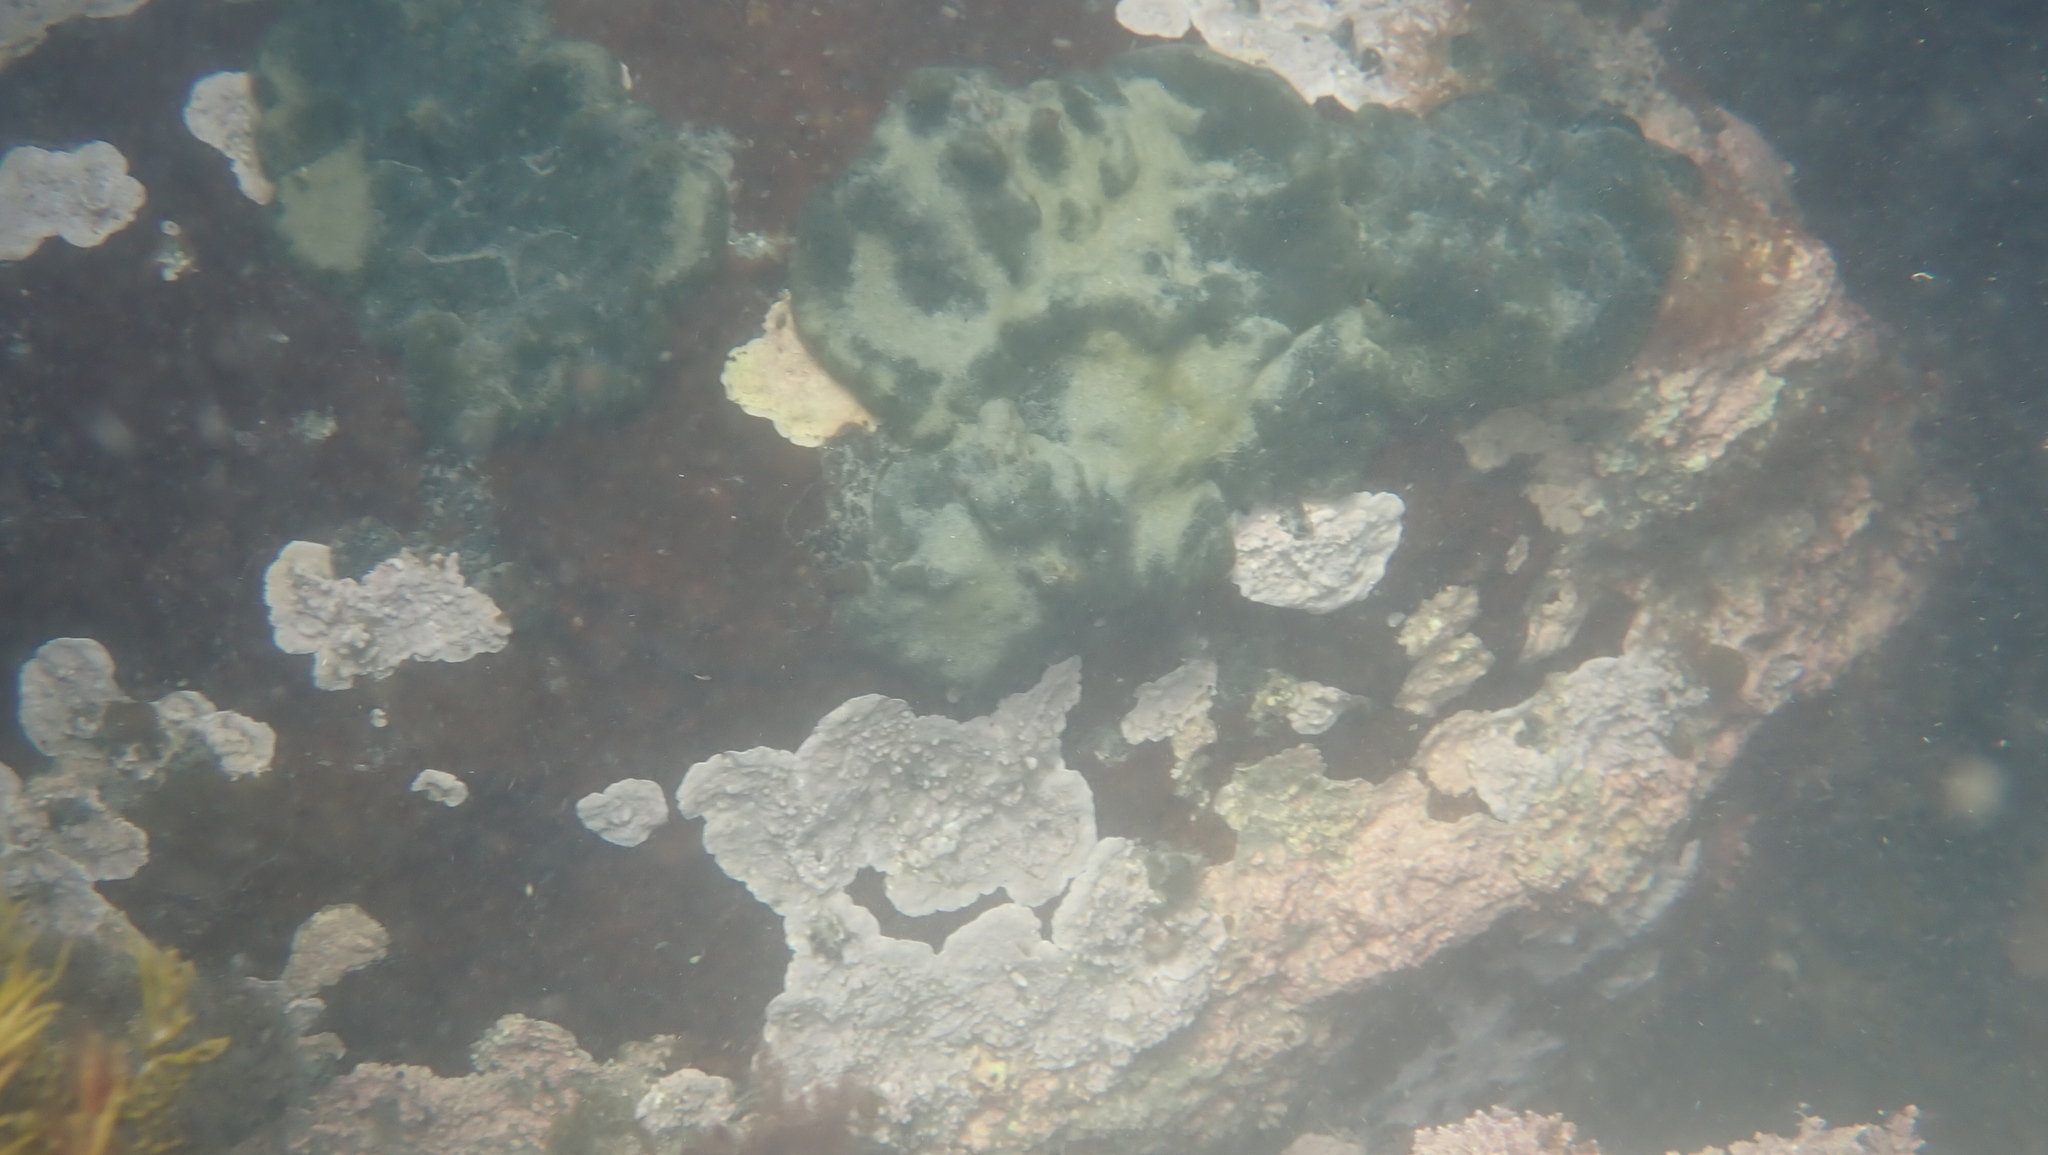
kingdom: Plantae
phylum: Chlorophyta
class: Ulvophyceae
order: Bryopsidales
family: Codiaceae
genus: Codium
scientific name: Codium convolutum
